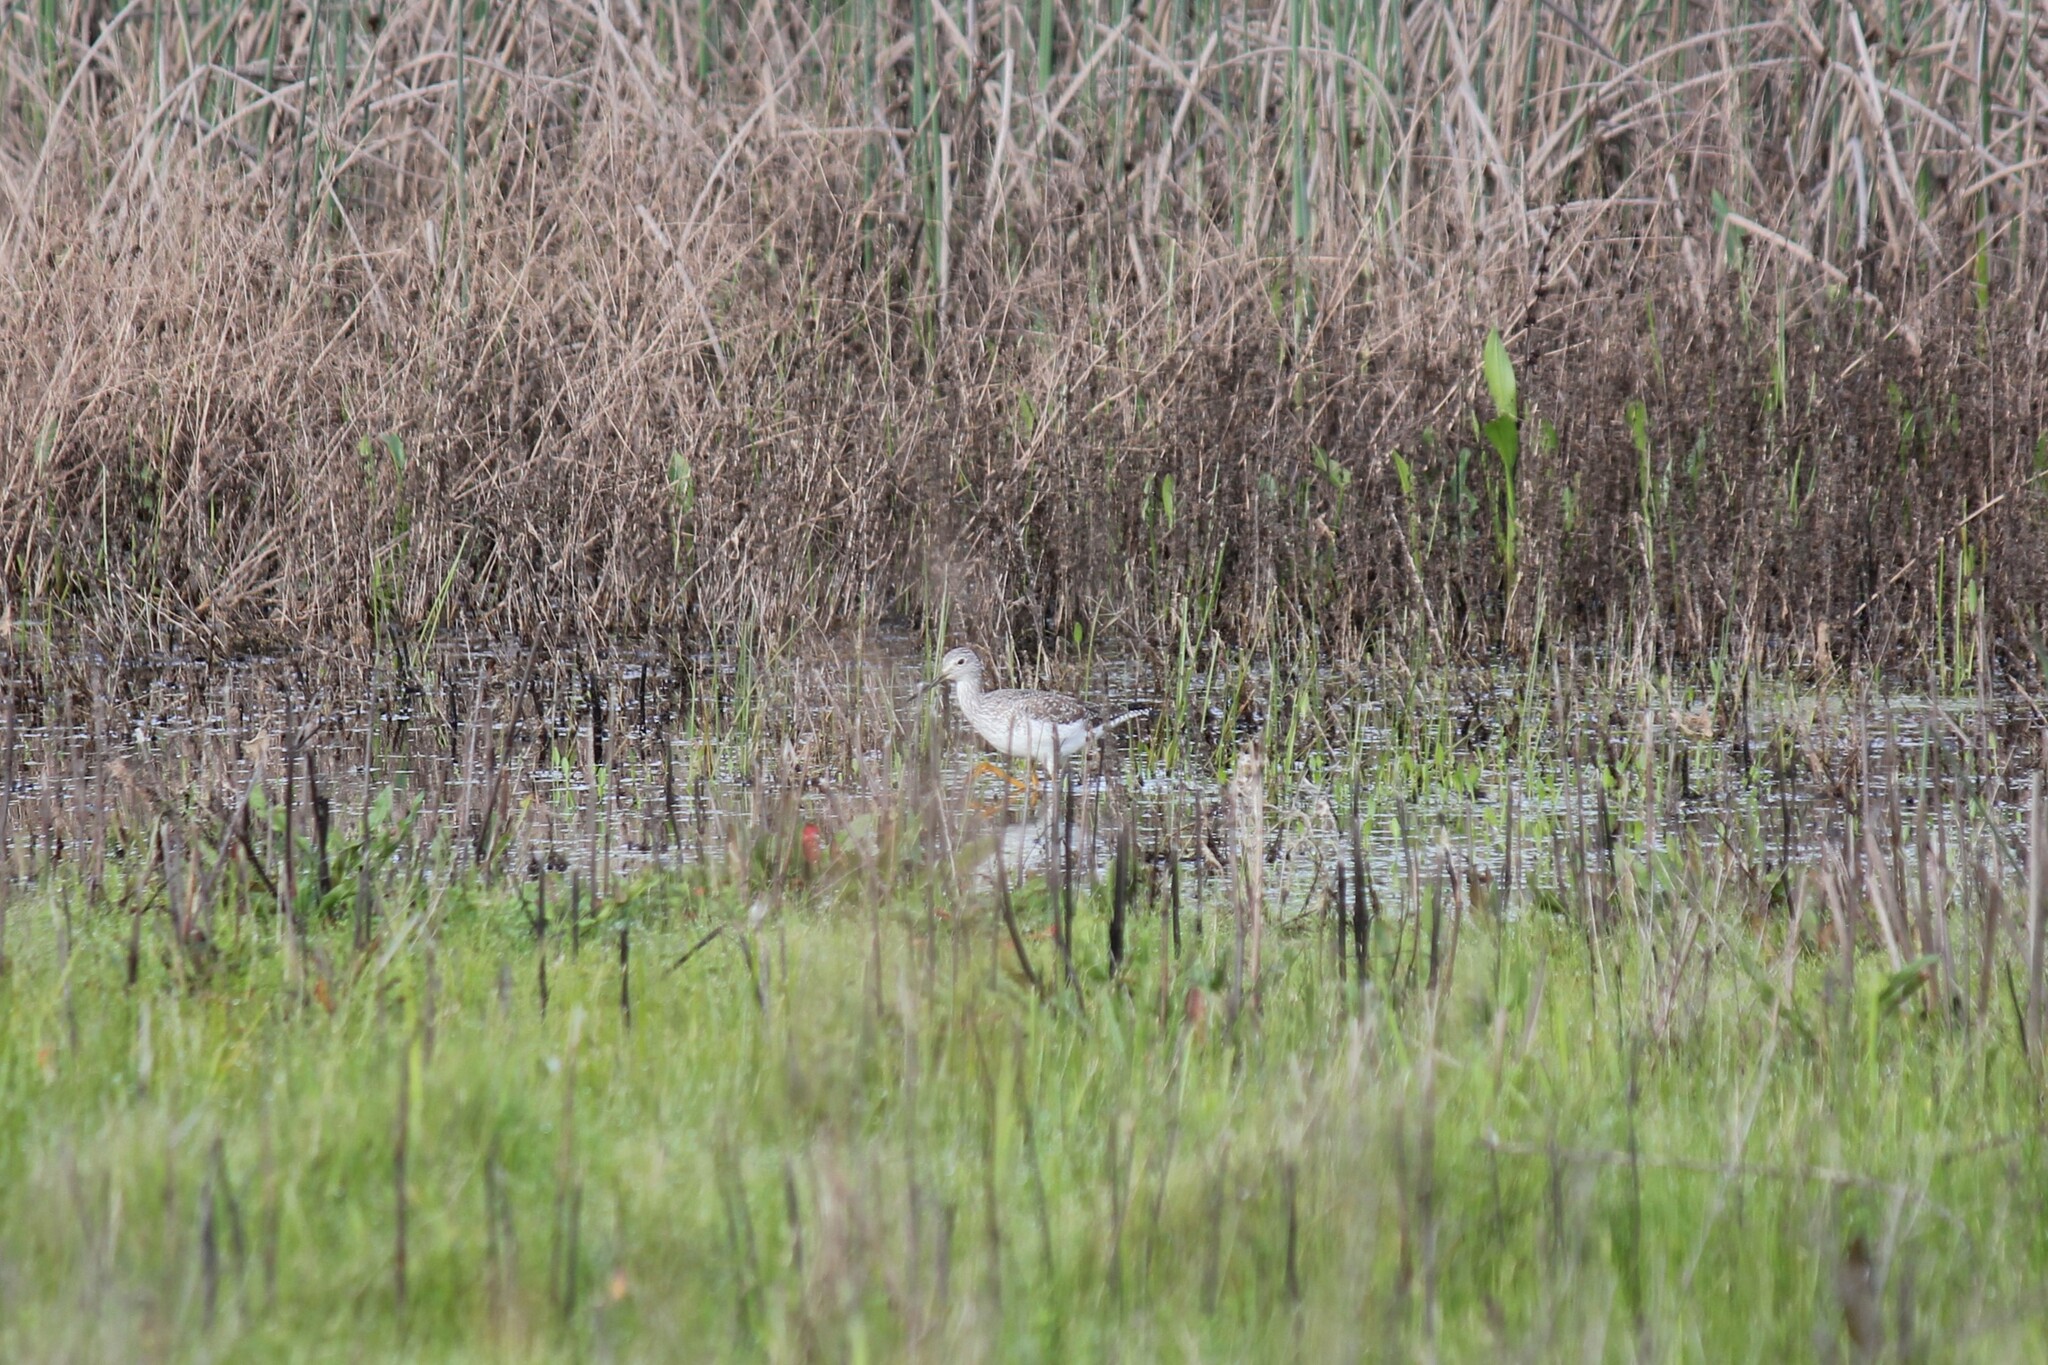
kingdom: Animalia
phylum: Chordata
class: Aves
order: Charadriiformes
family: Scolopacidae
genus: Tringa
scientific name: Tringa melanoleuca
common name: Greater yellowlegs
